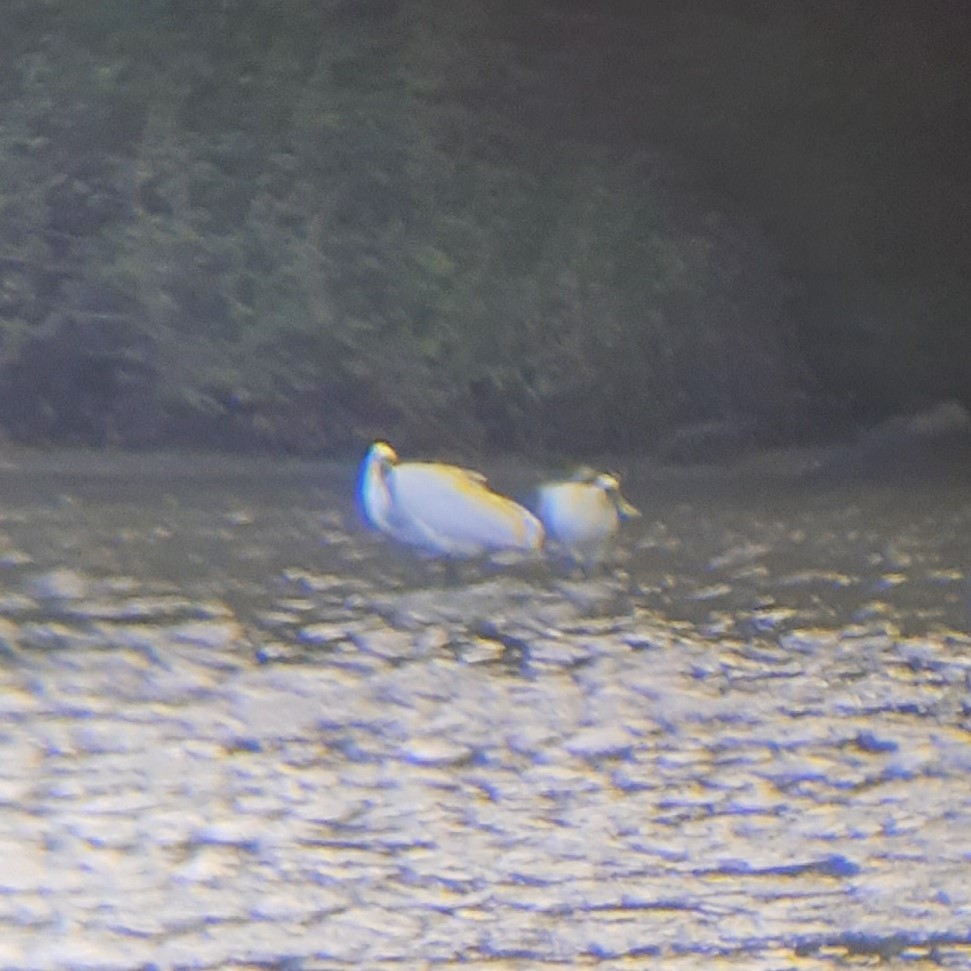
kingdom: Animalia
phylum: Chordata
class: Aves
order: Pelecaniformes
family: Threskiornithidae
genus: Platalea
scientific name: Platalea regia
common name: Royal spoonbill
